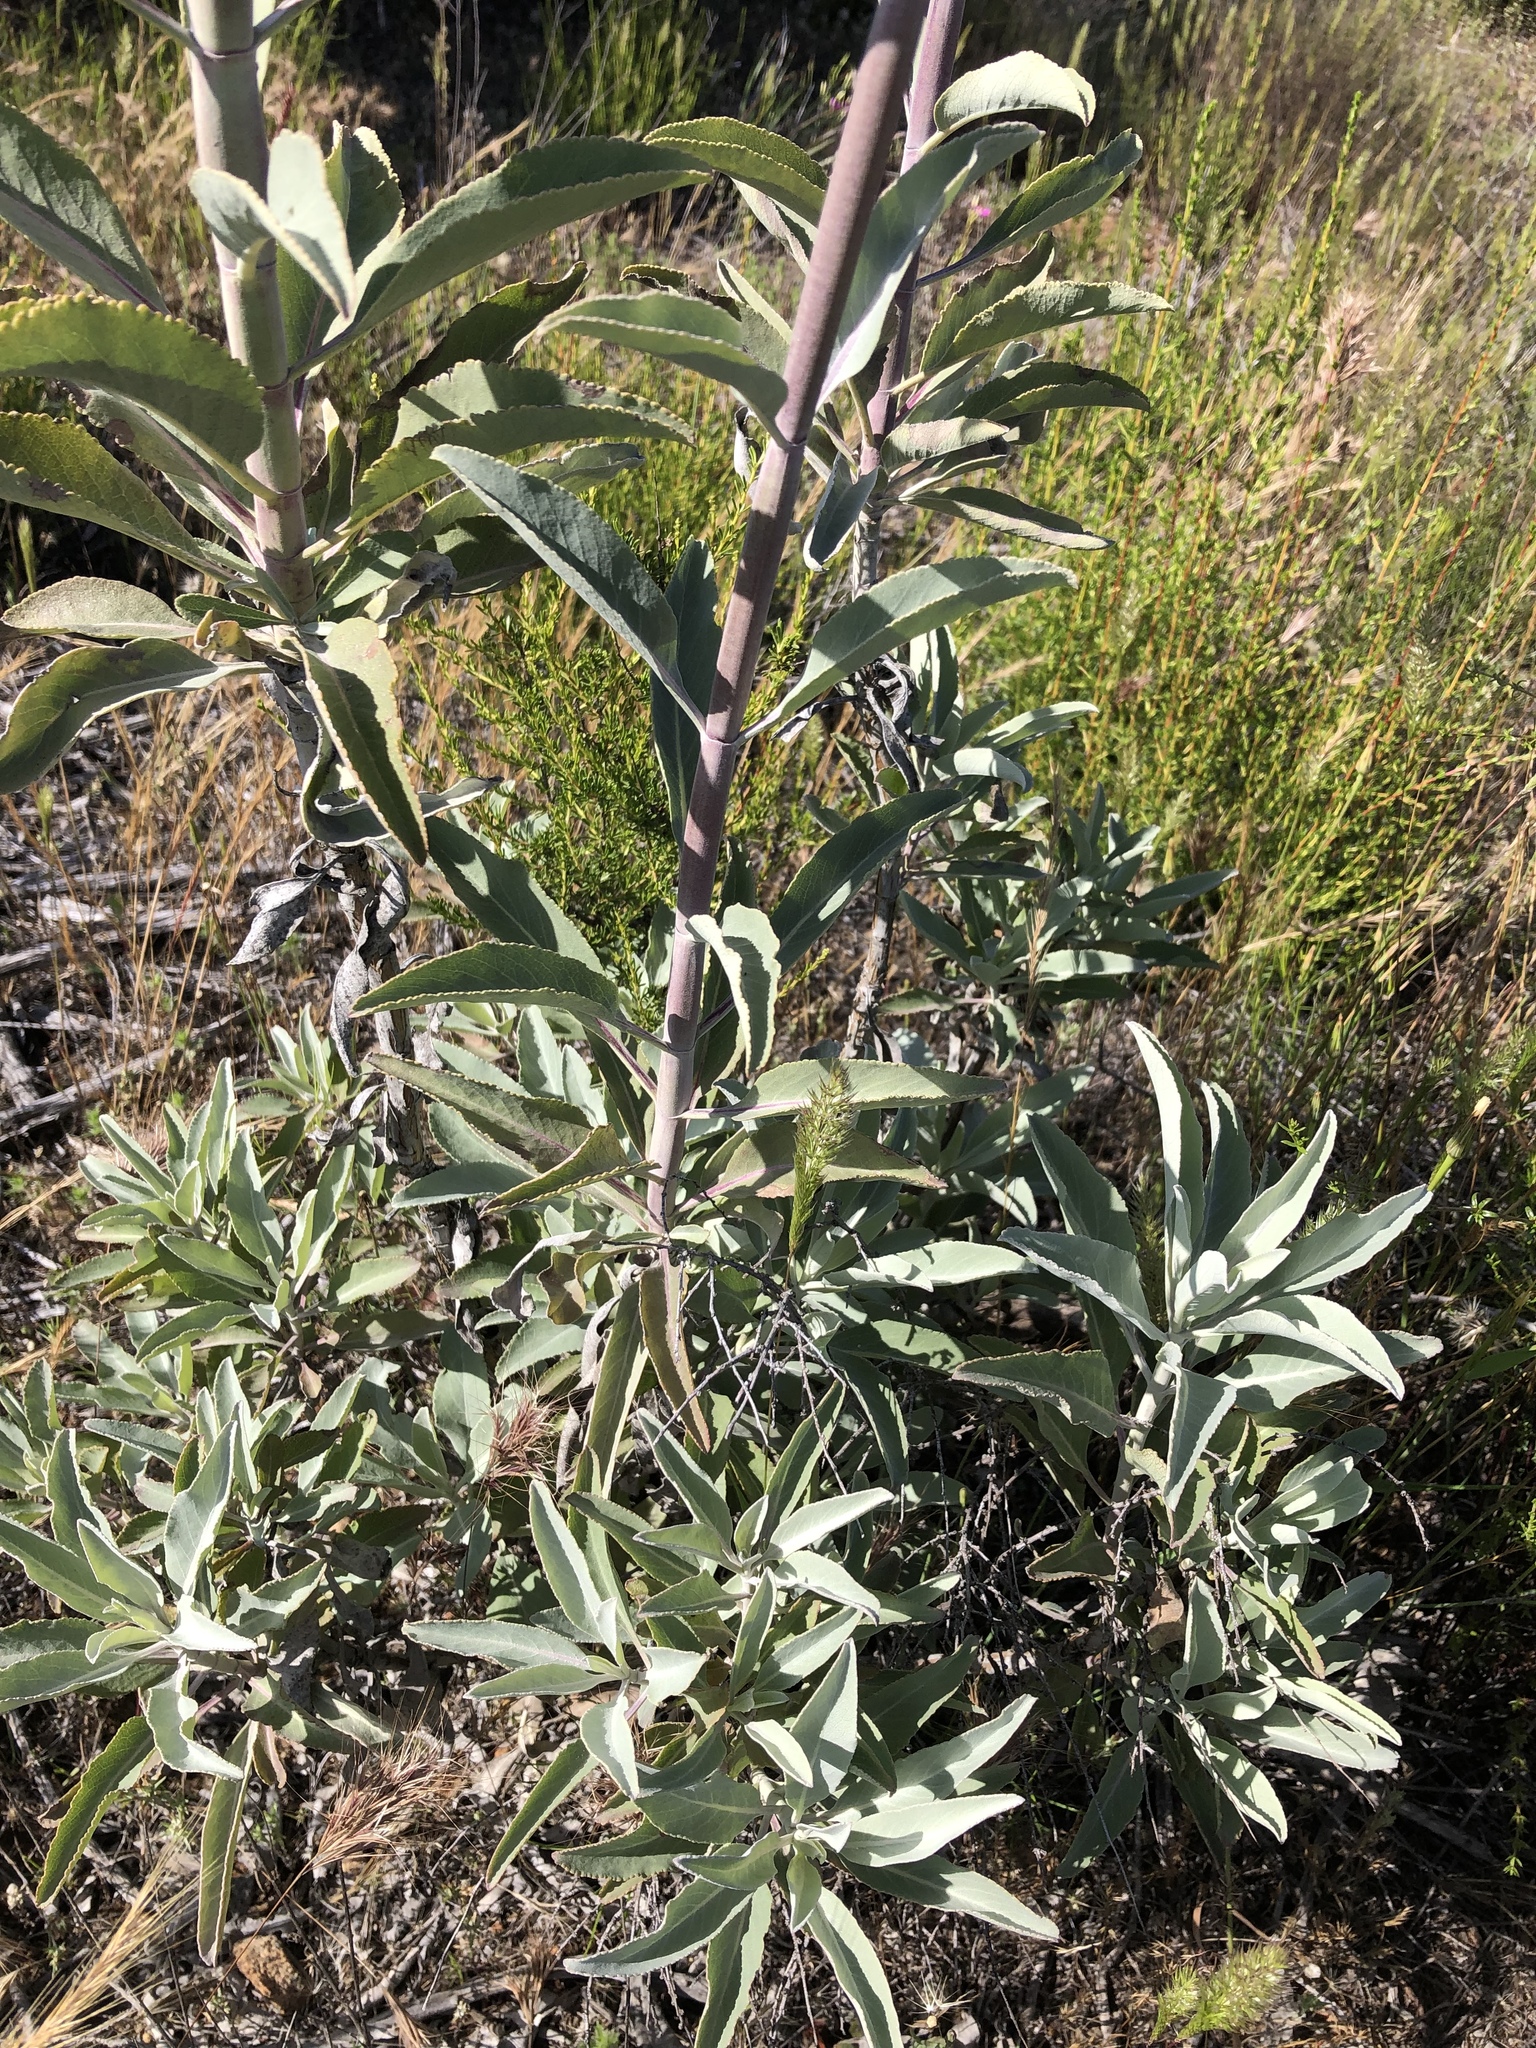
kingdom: Plantae
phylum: Tracheophyta
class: Magnoliopsida
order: Lamiales
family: Lamiaceae
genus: Salvia
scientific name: Salvia apiana
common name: White sage
